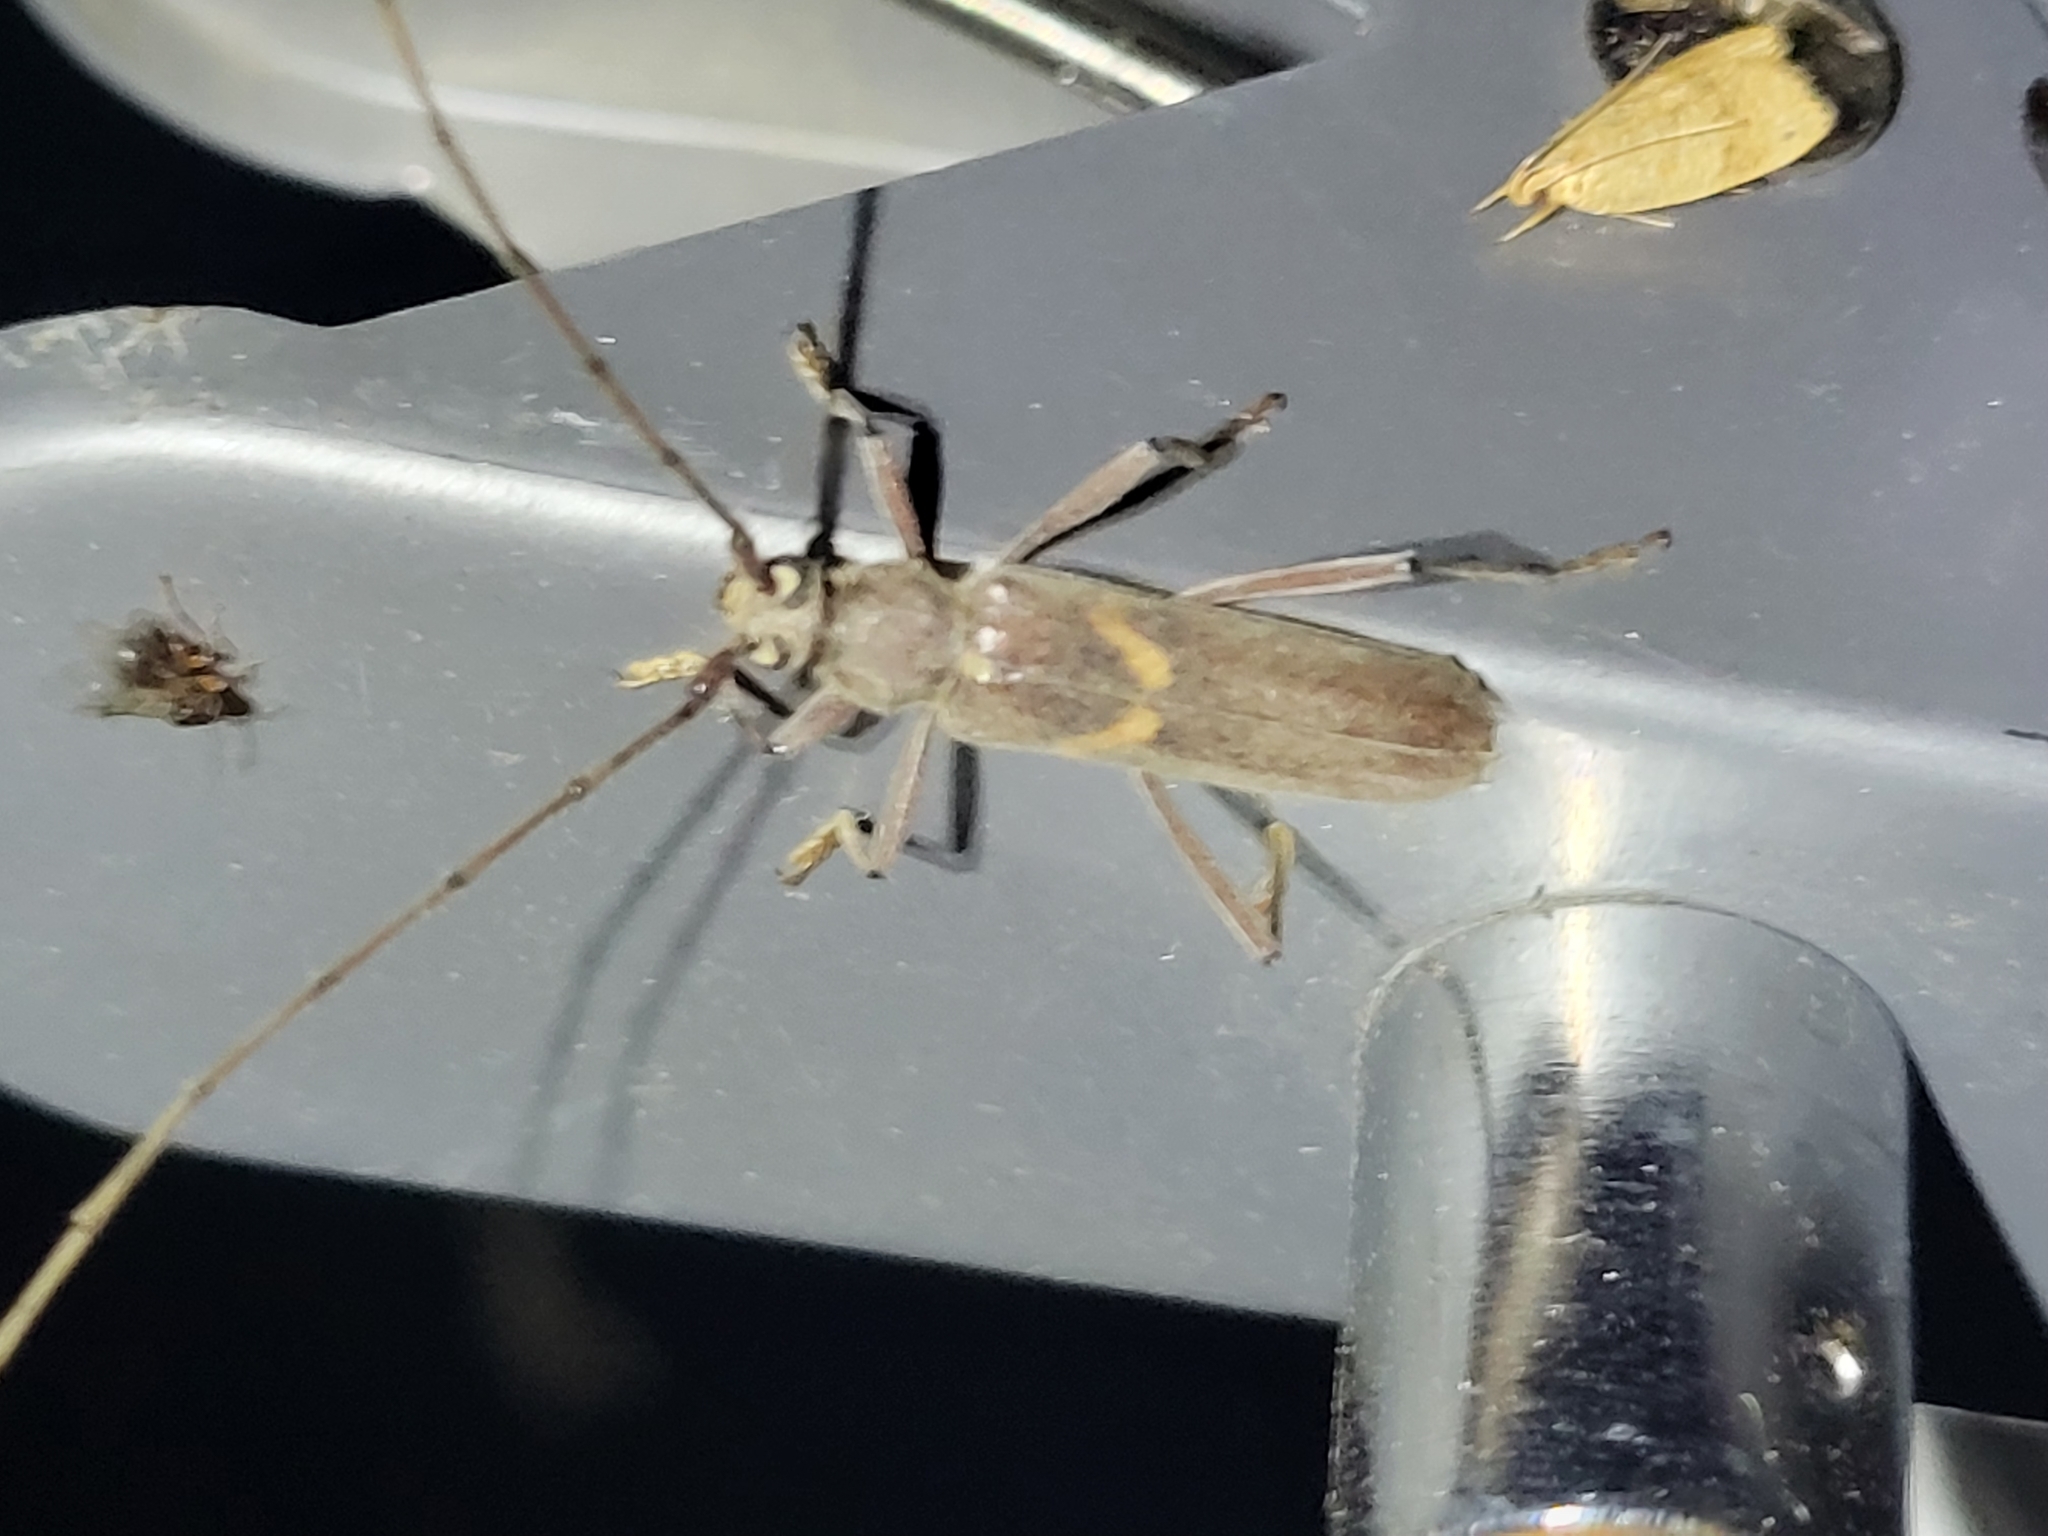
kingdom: Animalia
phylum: Arthropoda
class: Insecta
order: Coleoptera
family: Cerambycidae
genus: Knulliana
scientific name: Knulliana cincta
